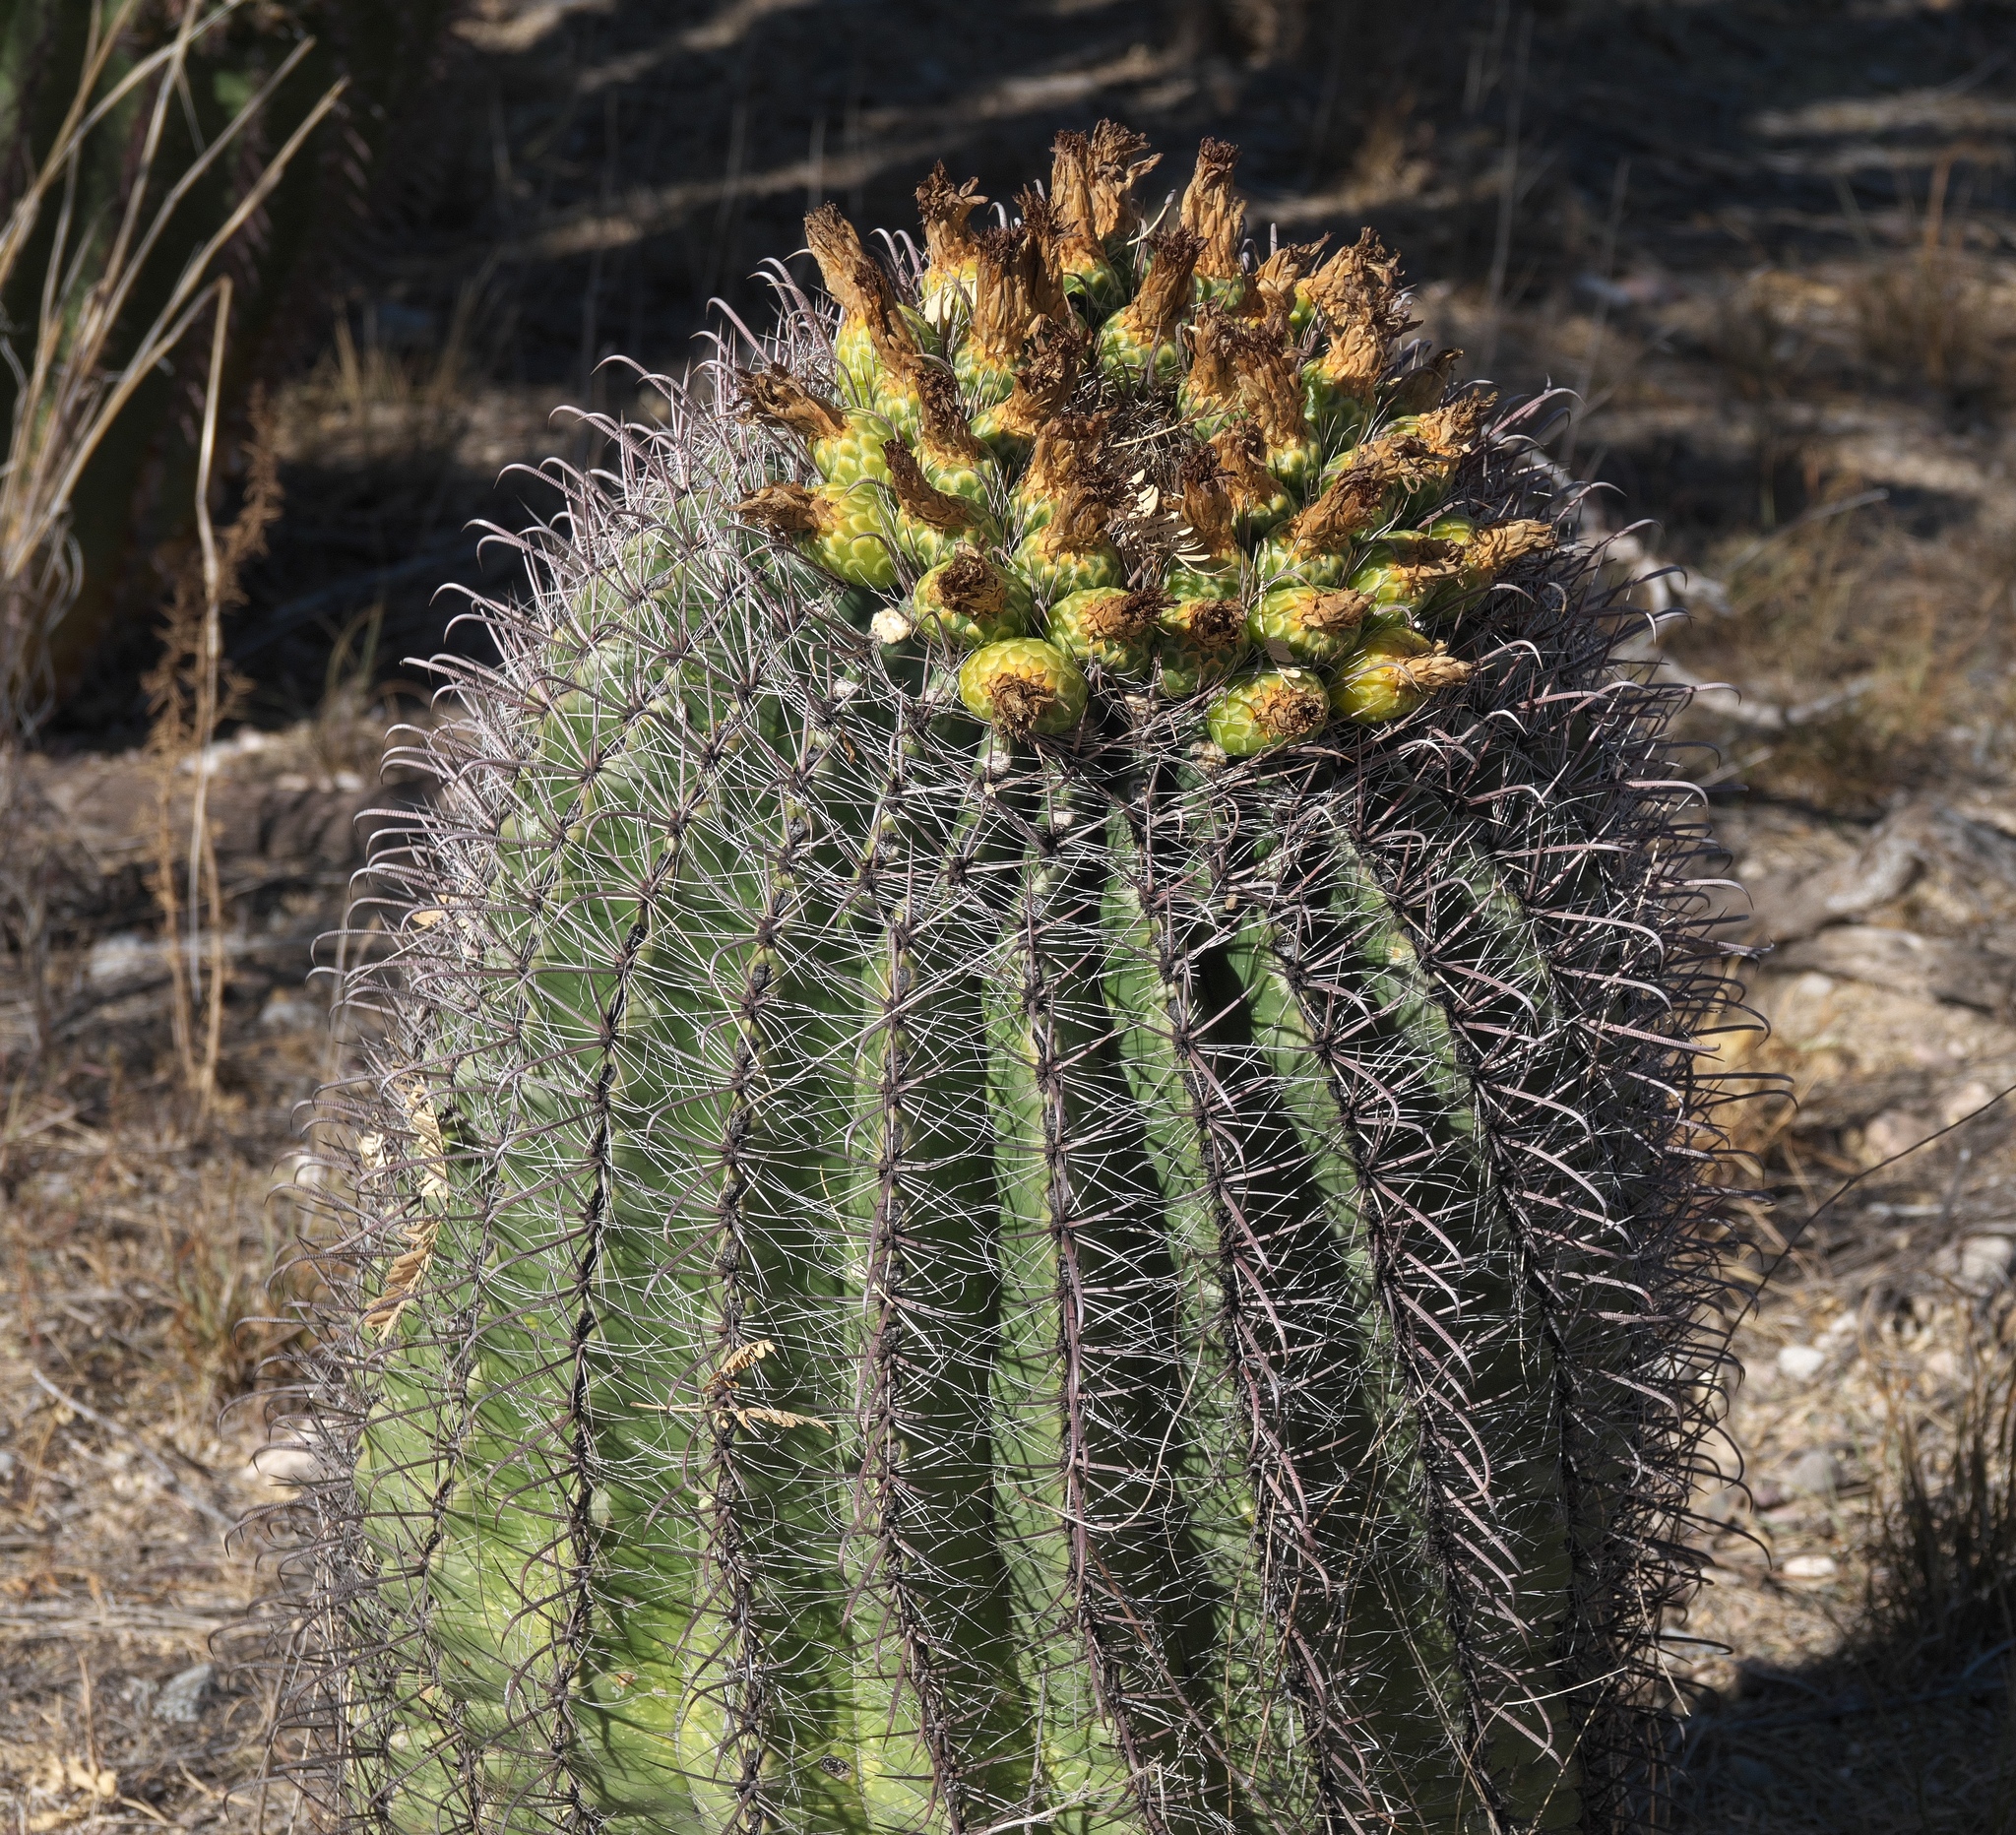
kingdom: Plantae
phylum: Tracheophyta
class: Magnoliopsida
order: Caryophyllales
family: Cactaceae
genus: Ferocactus
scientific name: Ferocactus wislizeni
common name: Candy barrel cactus
